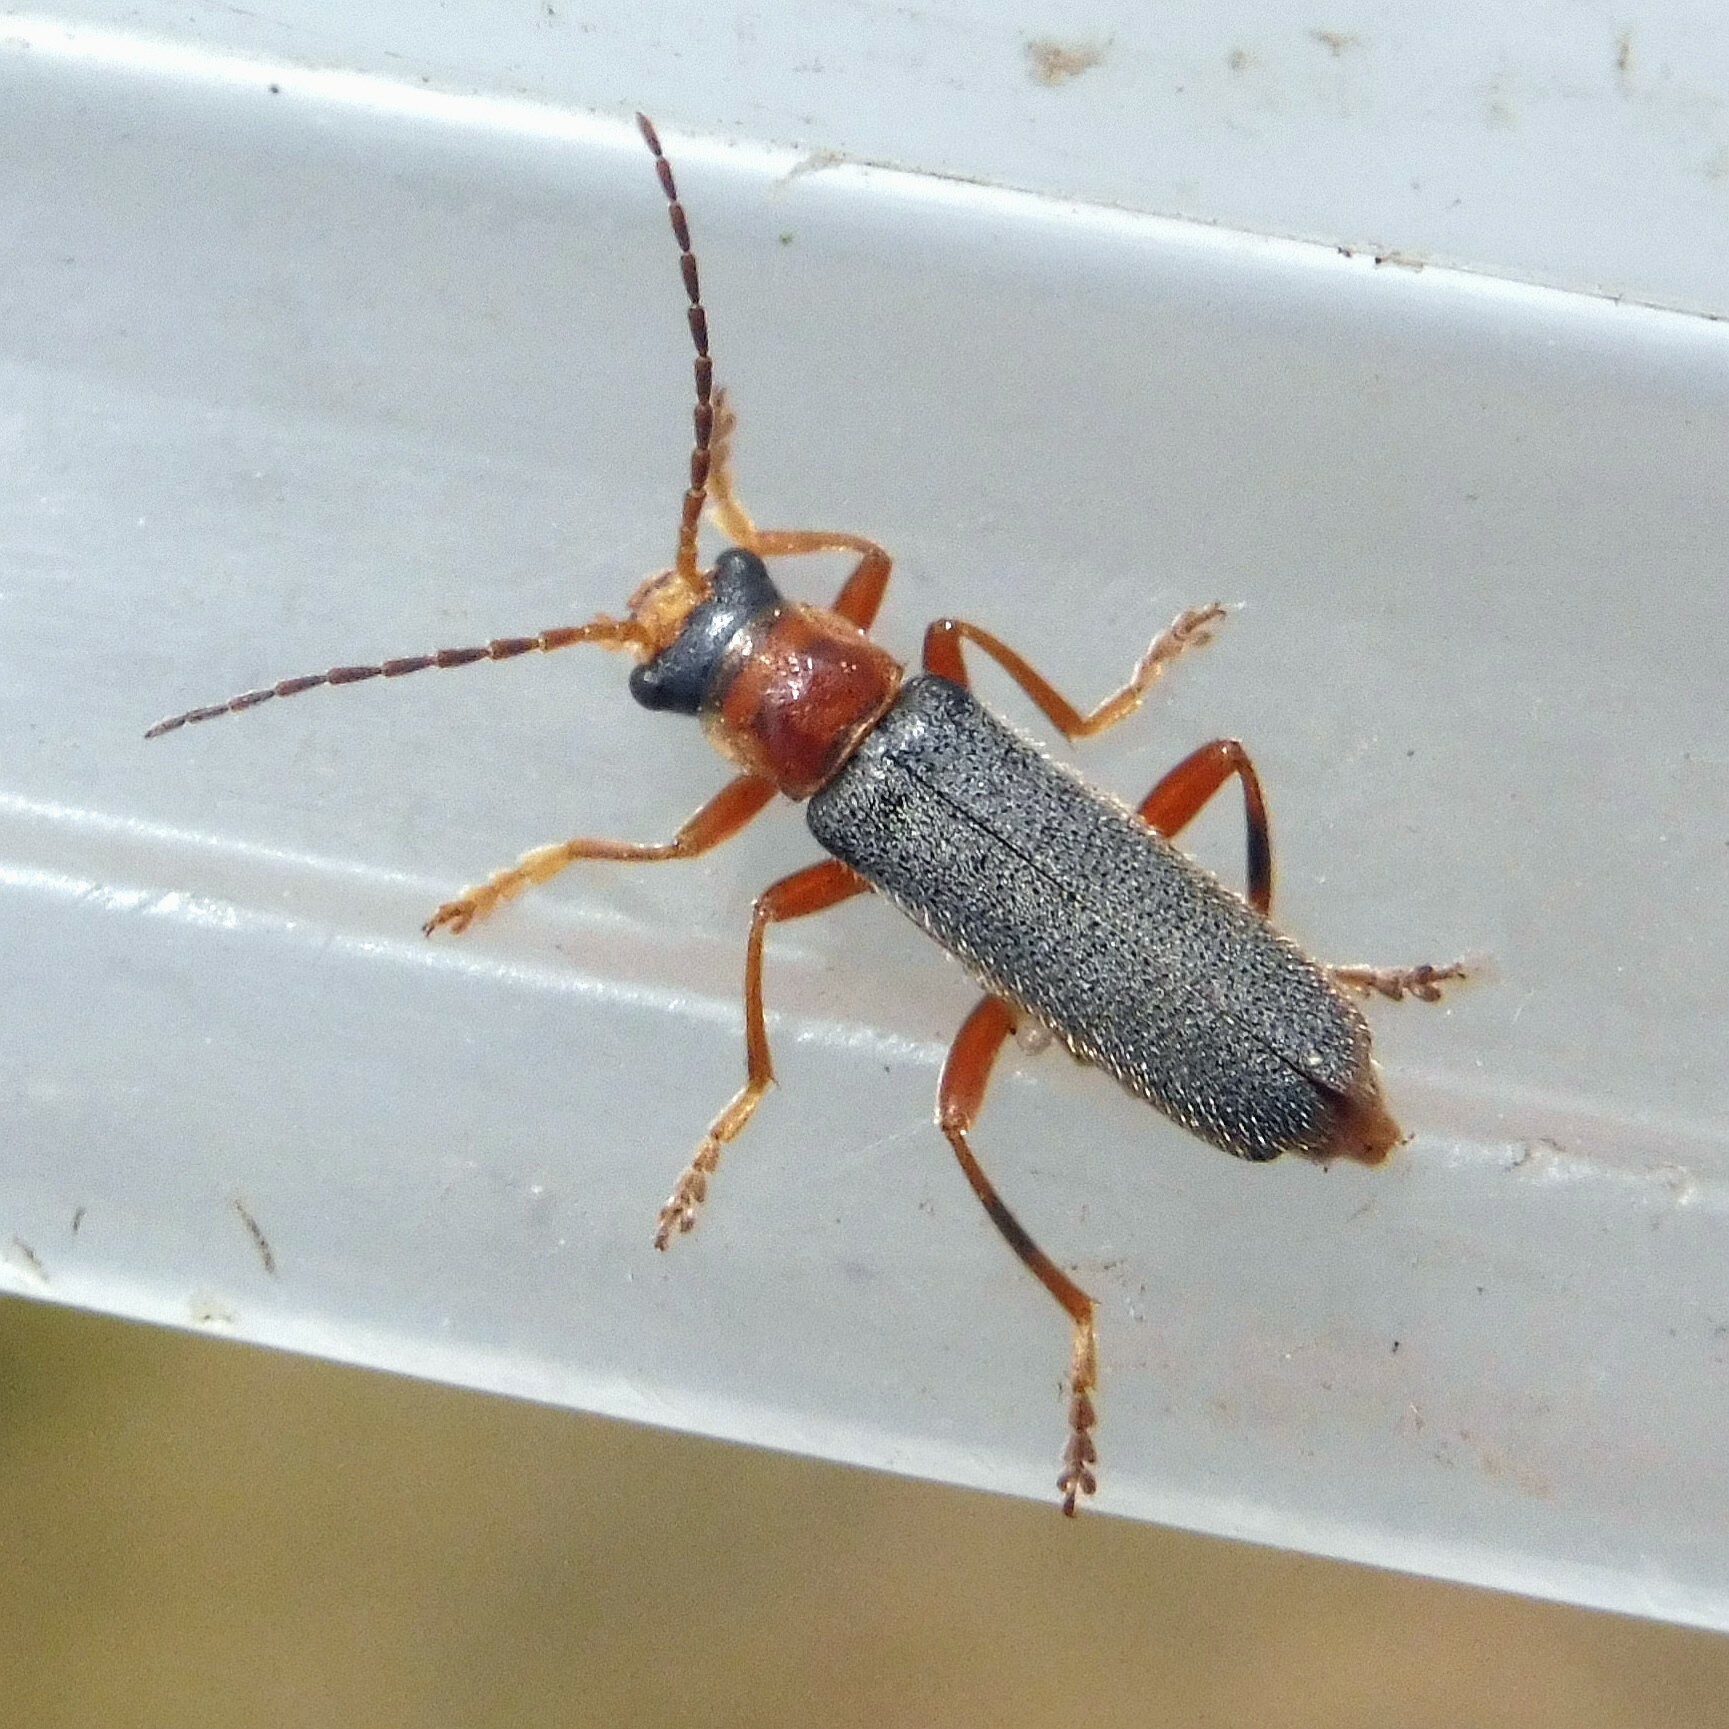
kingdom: Animalia
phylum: Arthropoda
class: Insecta
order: Coleoptera
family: Cantharidae
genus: Cantharis
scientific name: Cantharis lateralis
